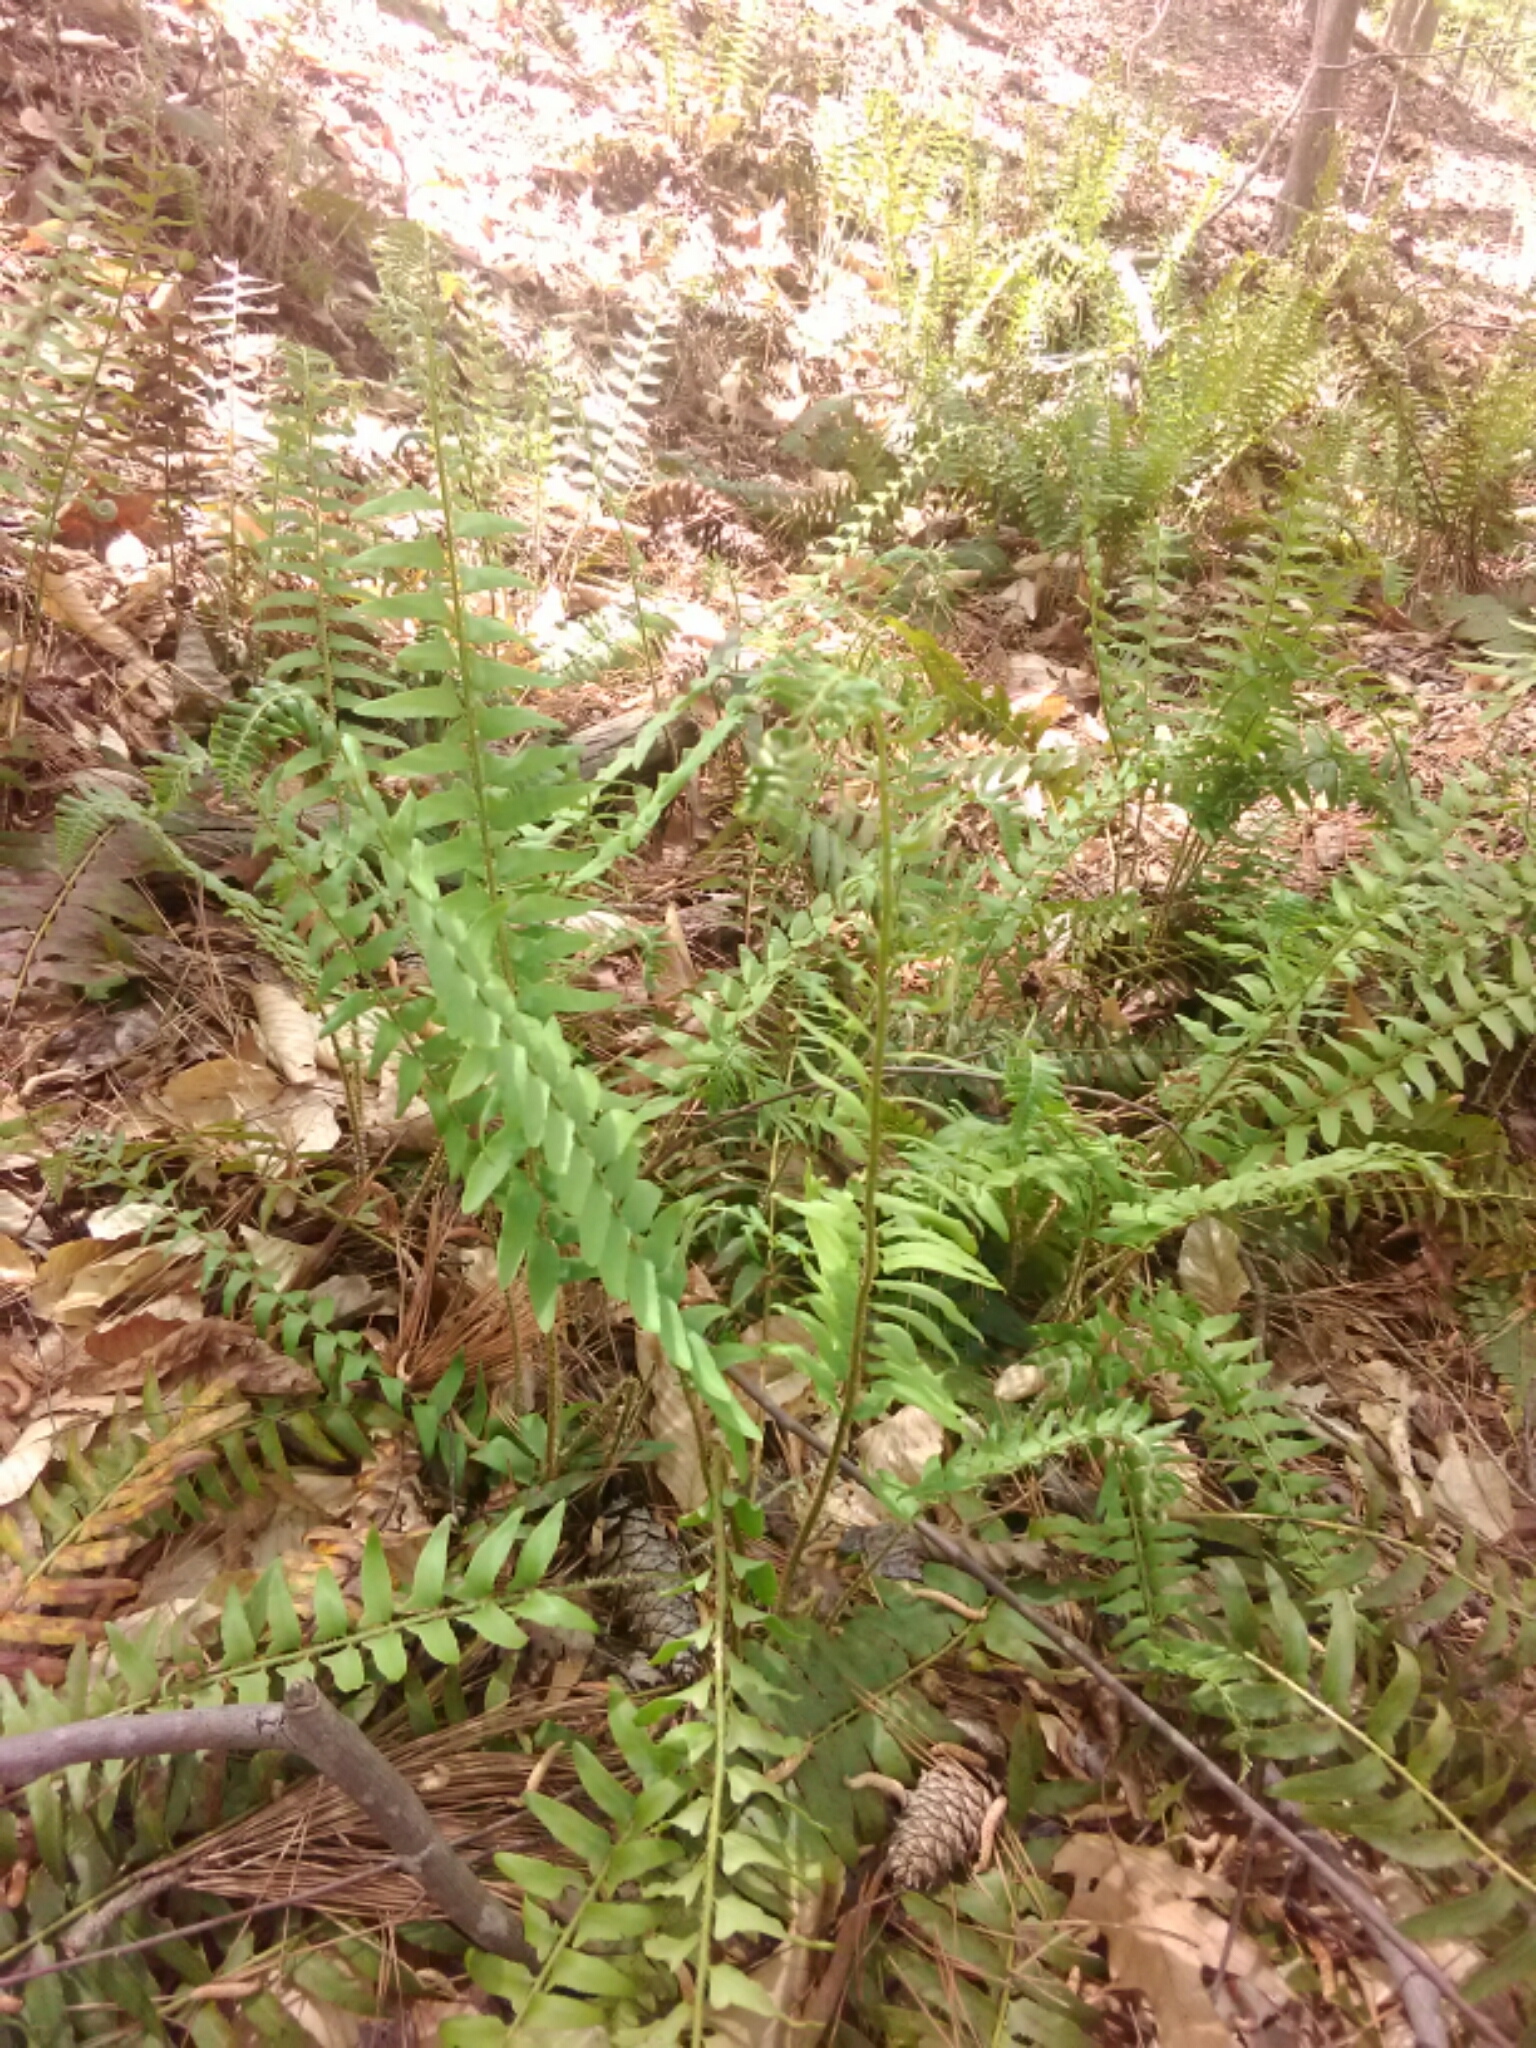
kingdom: Plantae
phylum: Tracheophyta
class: Polypodiopsida
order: Polypodiales
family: Dryopteridaceae
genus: Polystichum
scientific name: Polystichum acrostichoides
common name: Christmas fern
